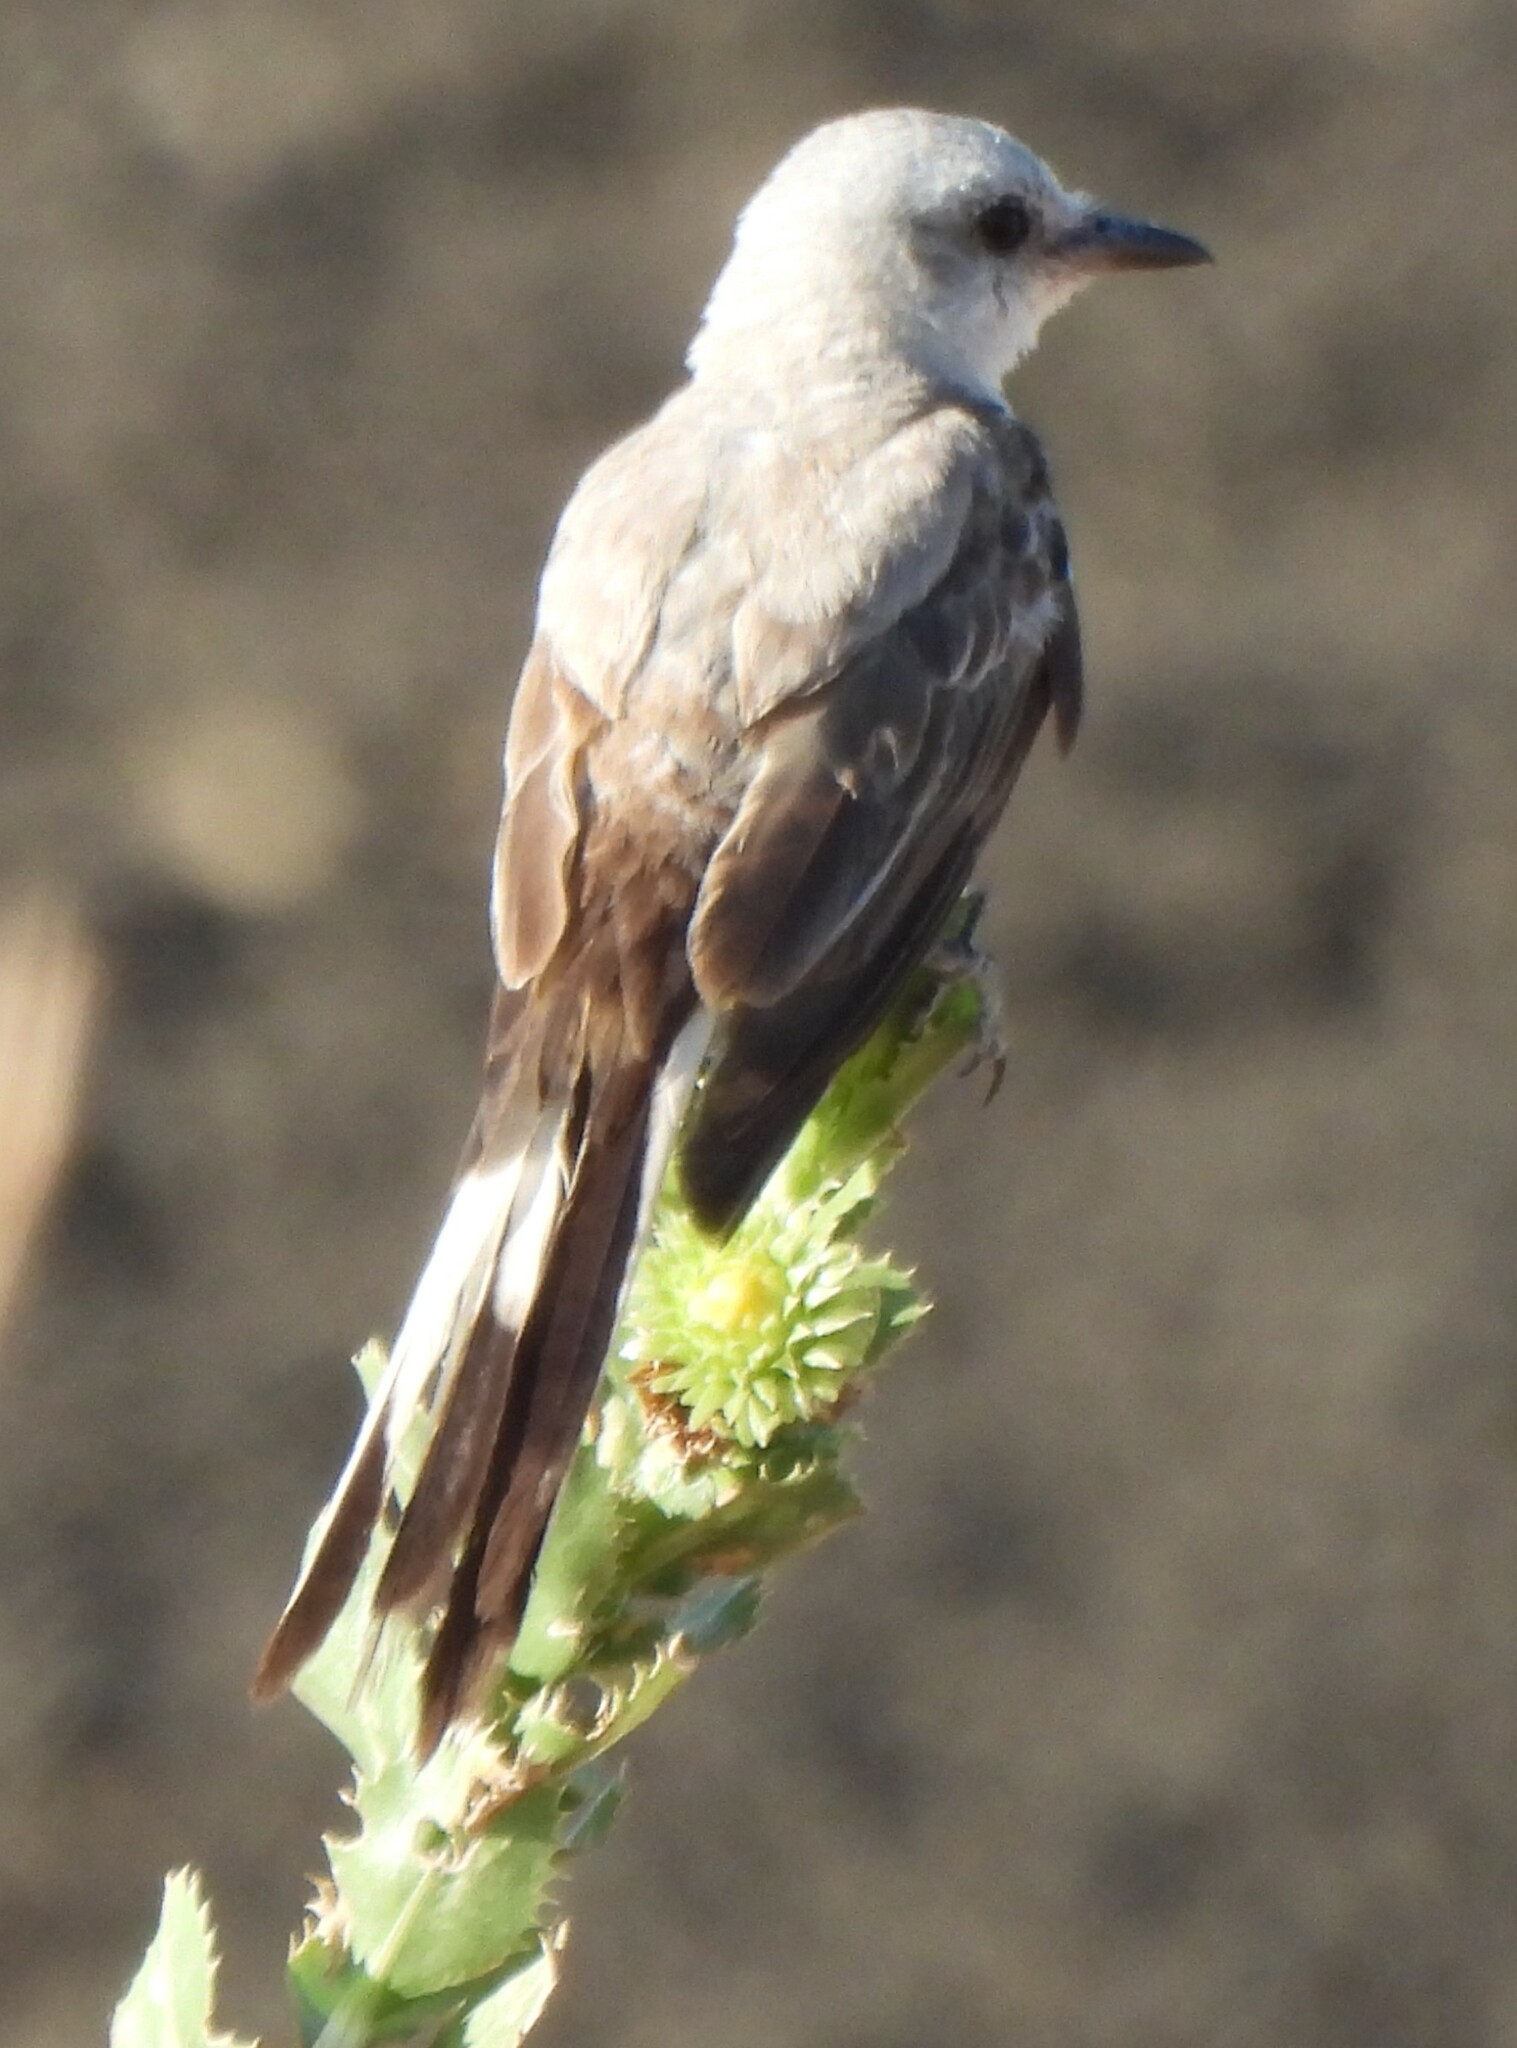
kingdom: Animalia
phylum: Chordata
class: Aves
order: Passeriformes
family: Tyrannidae
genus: Tyrannus
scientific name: Tyrannus forficatus
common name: Scissor-tailed flycatcher
